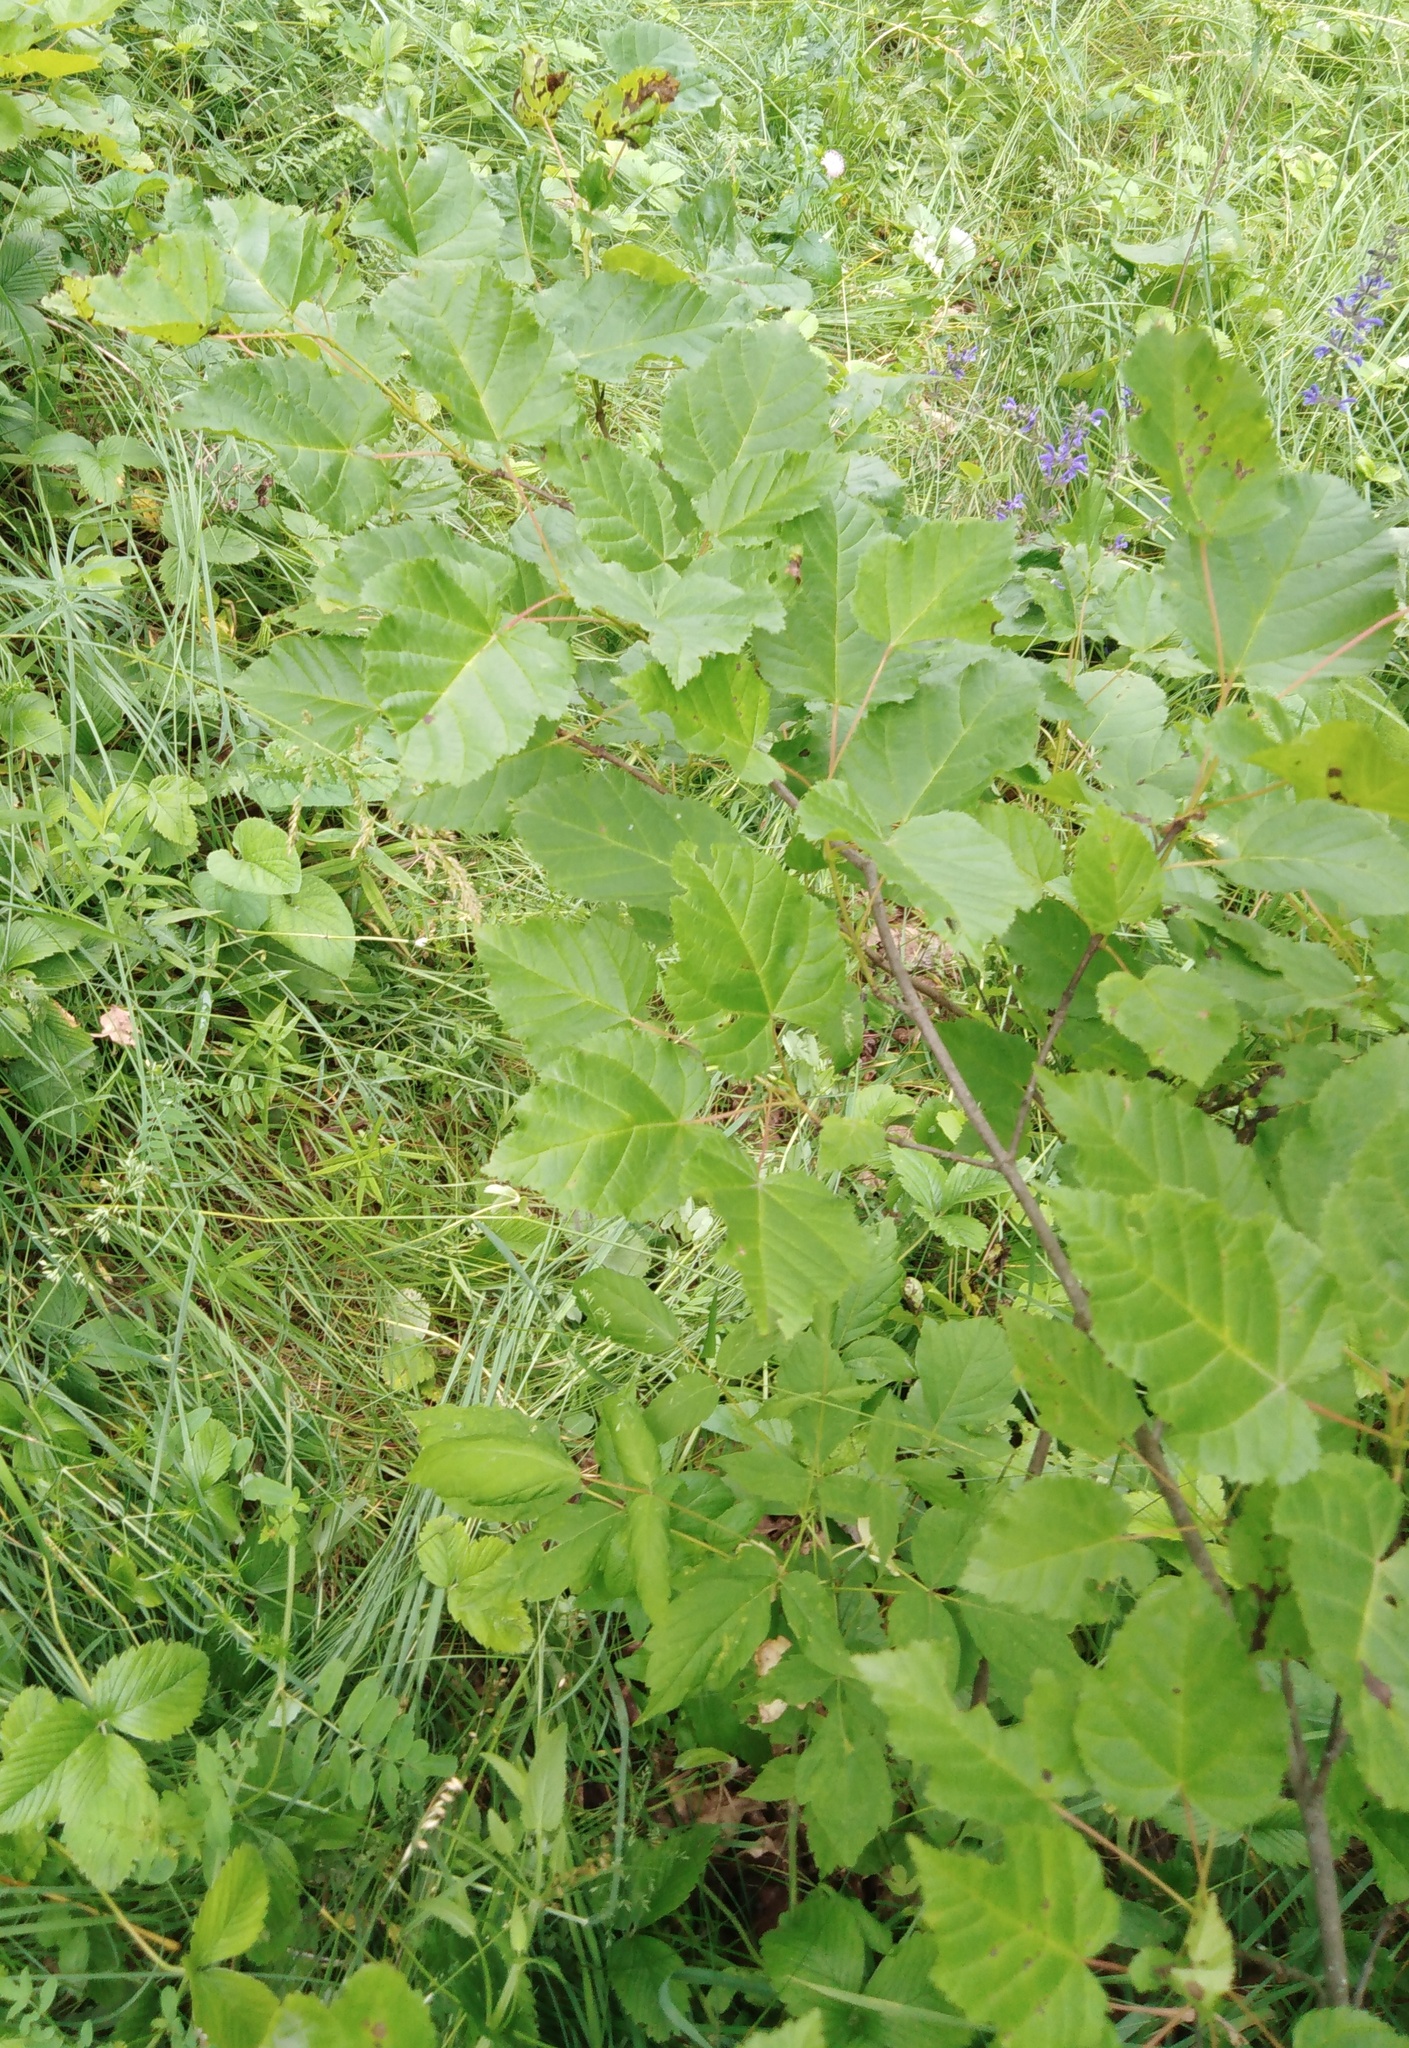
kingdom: Plantae
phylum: Tracheophyta
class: Magnoliopsida
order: Sapindales
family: Sapindaceae
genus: Acer
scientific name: Acer tataricum
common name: Tartar maple
